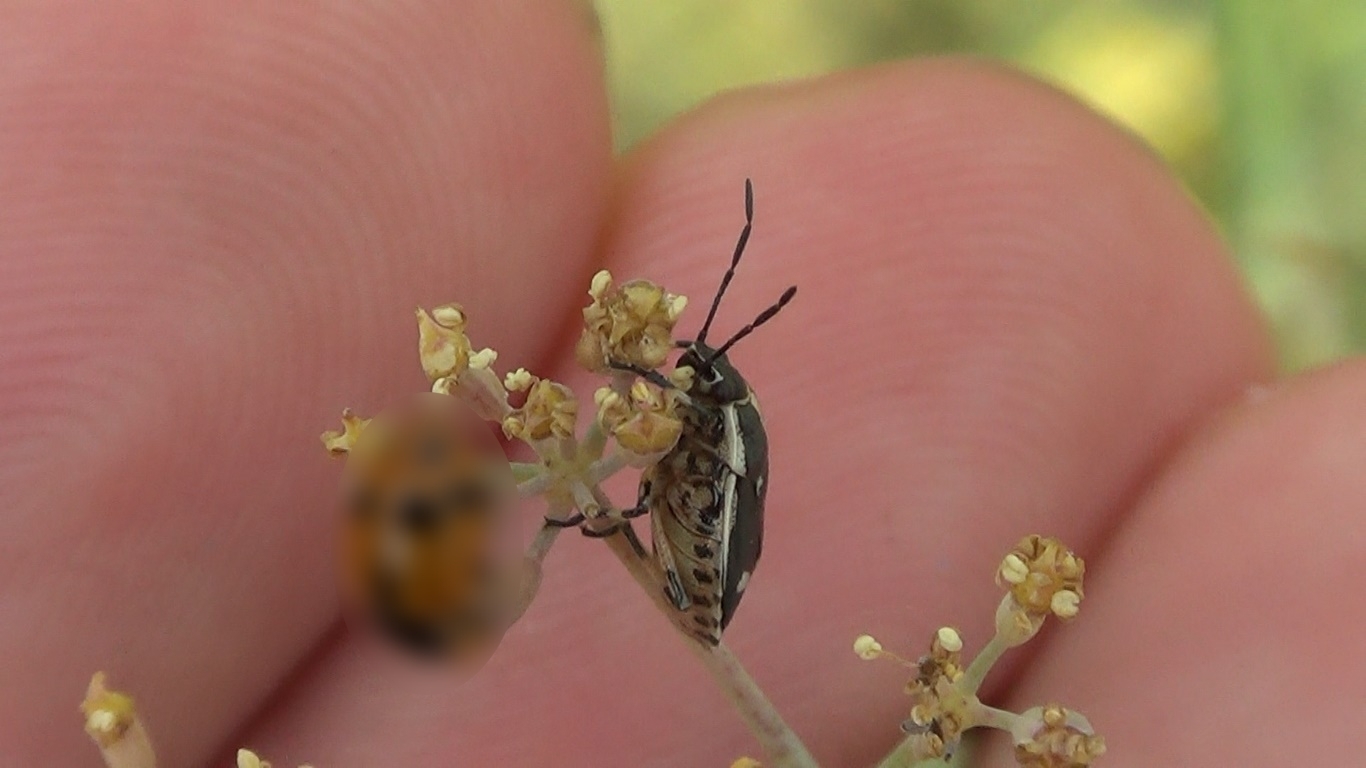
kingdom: Animalia
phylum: Arthropoda
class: Insecta
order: Hemiptera
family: Pentatomidae
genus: Eurydema
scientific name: Eurydema oleracea
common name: Cabbage bug
